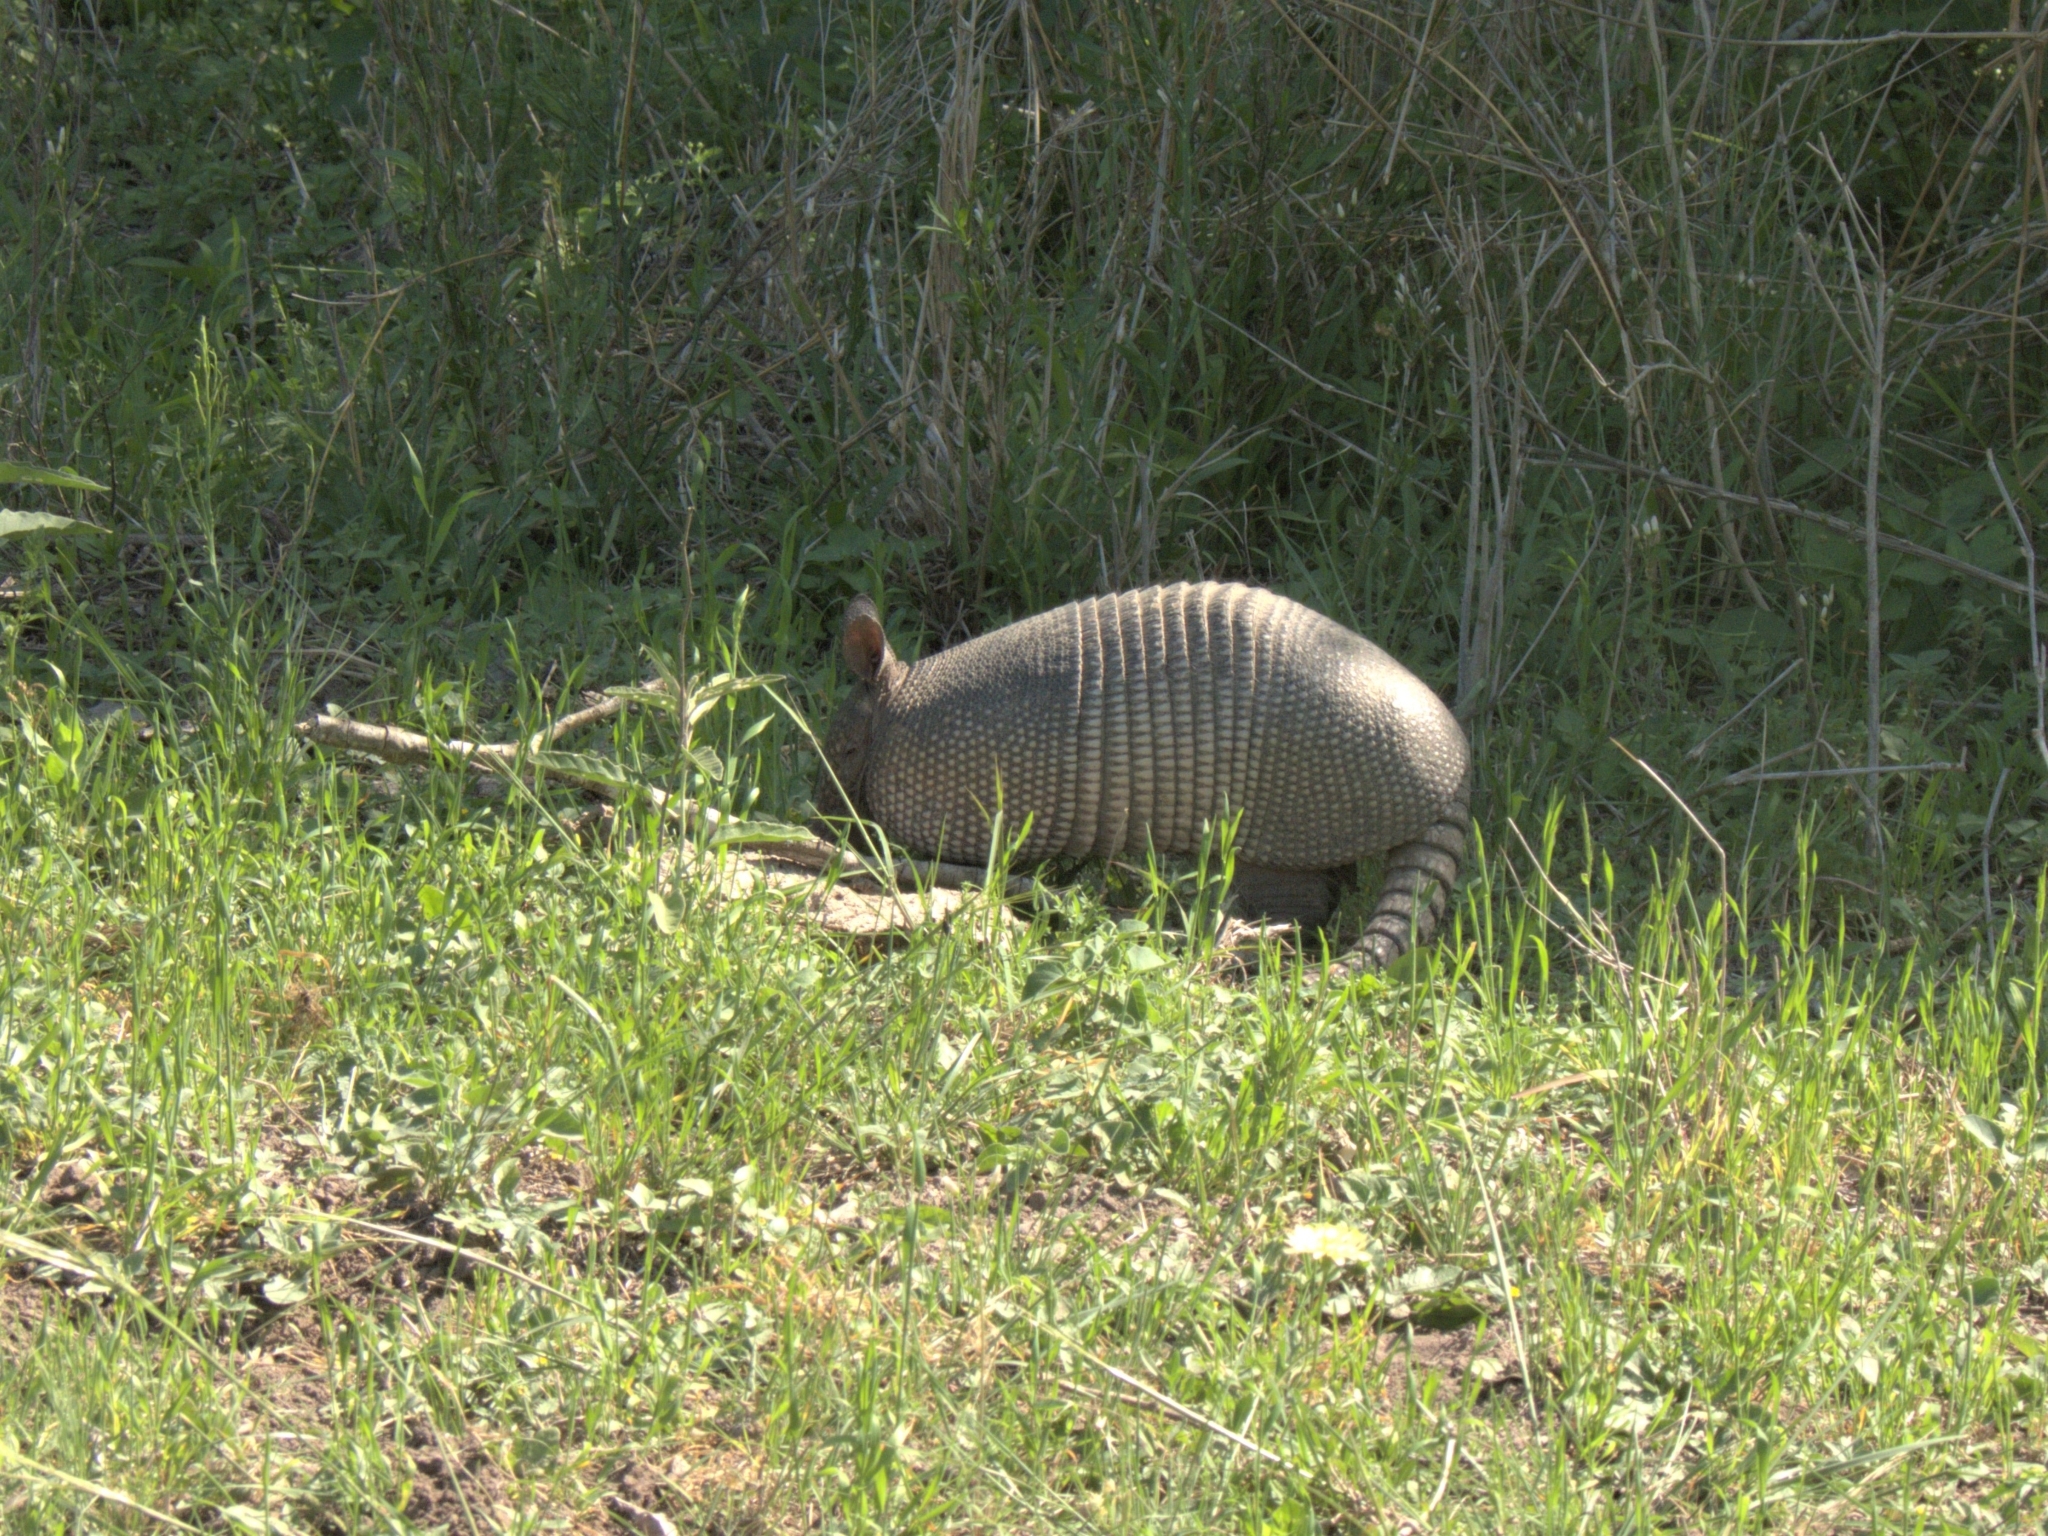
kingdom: Animalia
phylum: Chordata
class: Mammalia
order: Cingulata
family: Dasypodidae
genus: Dasypus
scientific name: Dasypus novemcinctus
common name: Nine-banded armadillo
